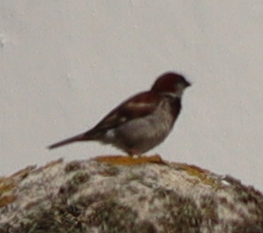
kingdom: Animalia
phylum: Chordata
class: Aves
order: Passeriformes
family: Passeridae
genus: Passer
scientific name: Passer domesticus
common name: House sparrow
